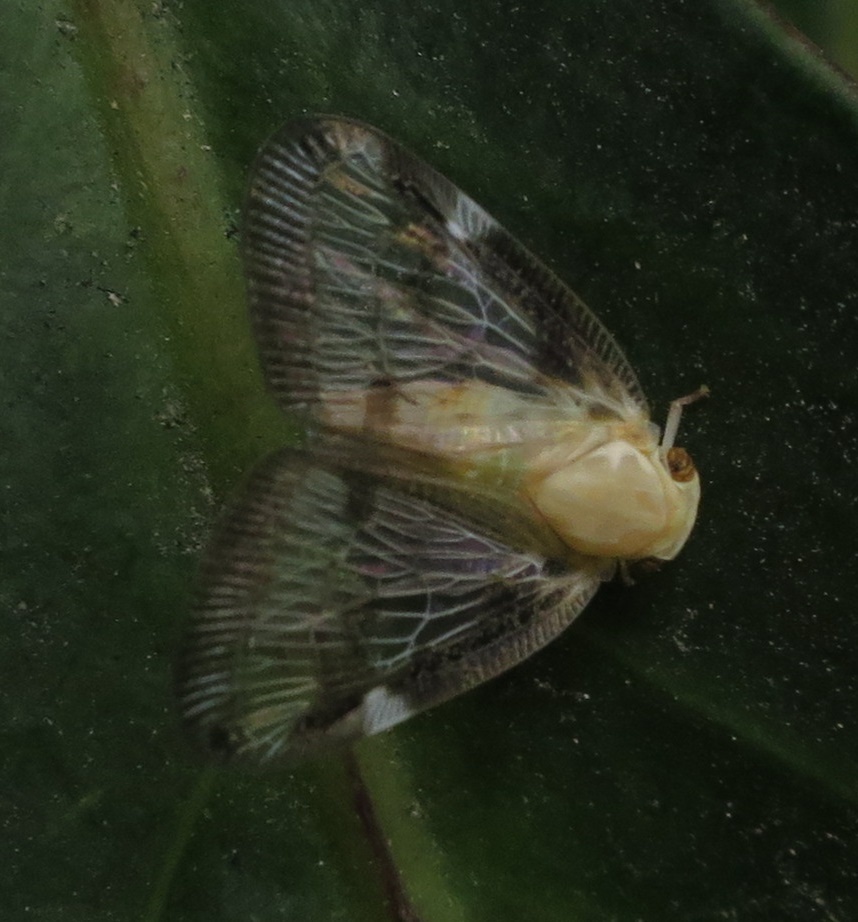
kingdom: Animalia
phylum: Arthropoda
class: Insecta
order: Hemiptera
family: Ricaniidae
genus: Scolypopa
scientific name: Scolypopa australis
